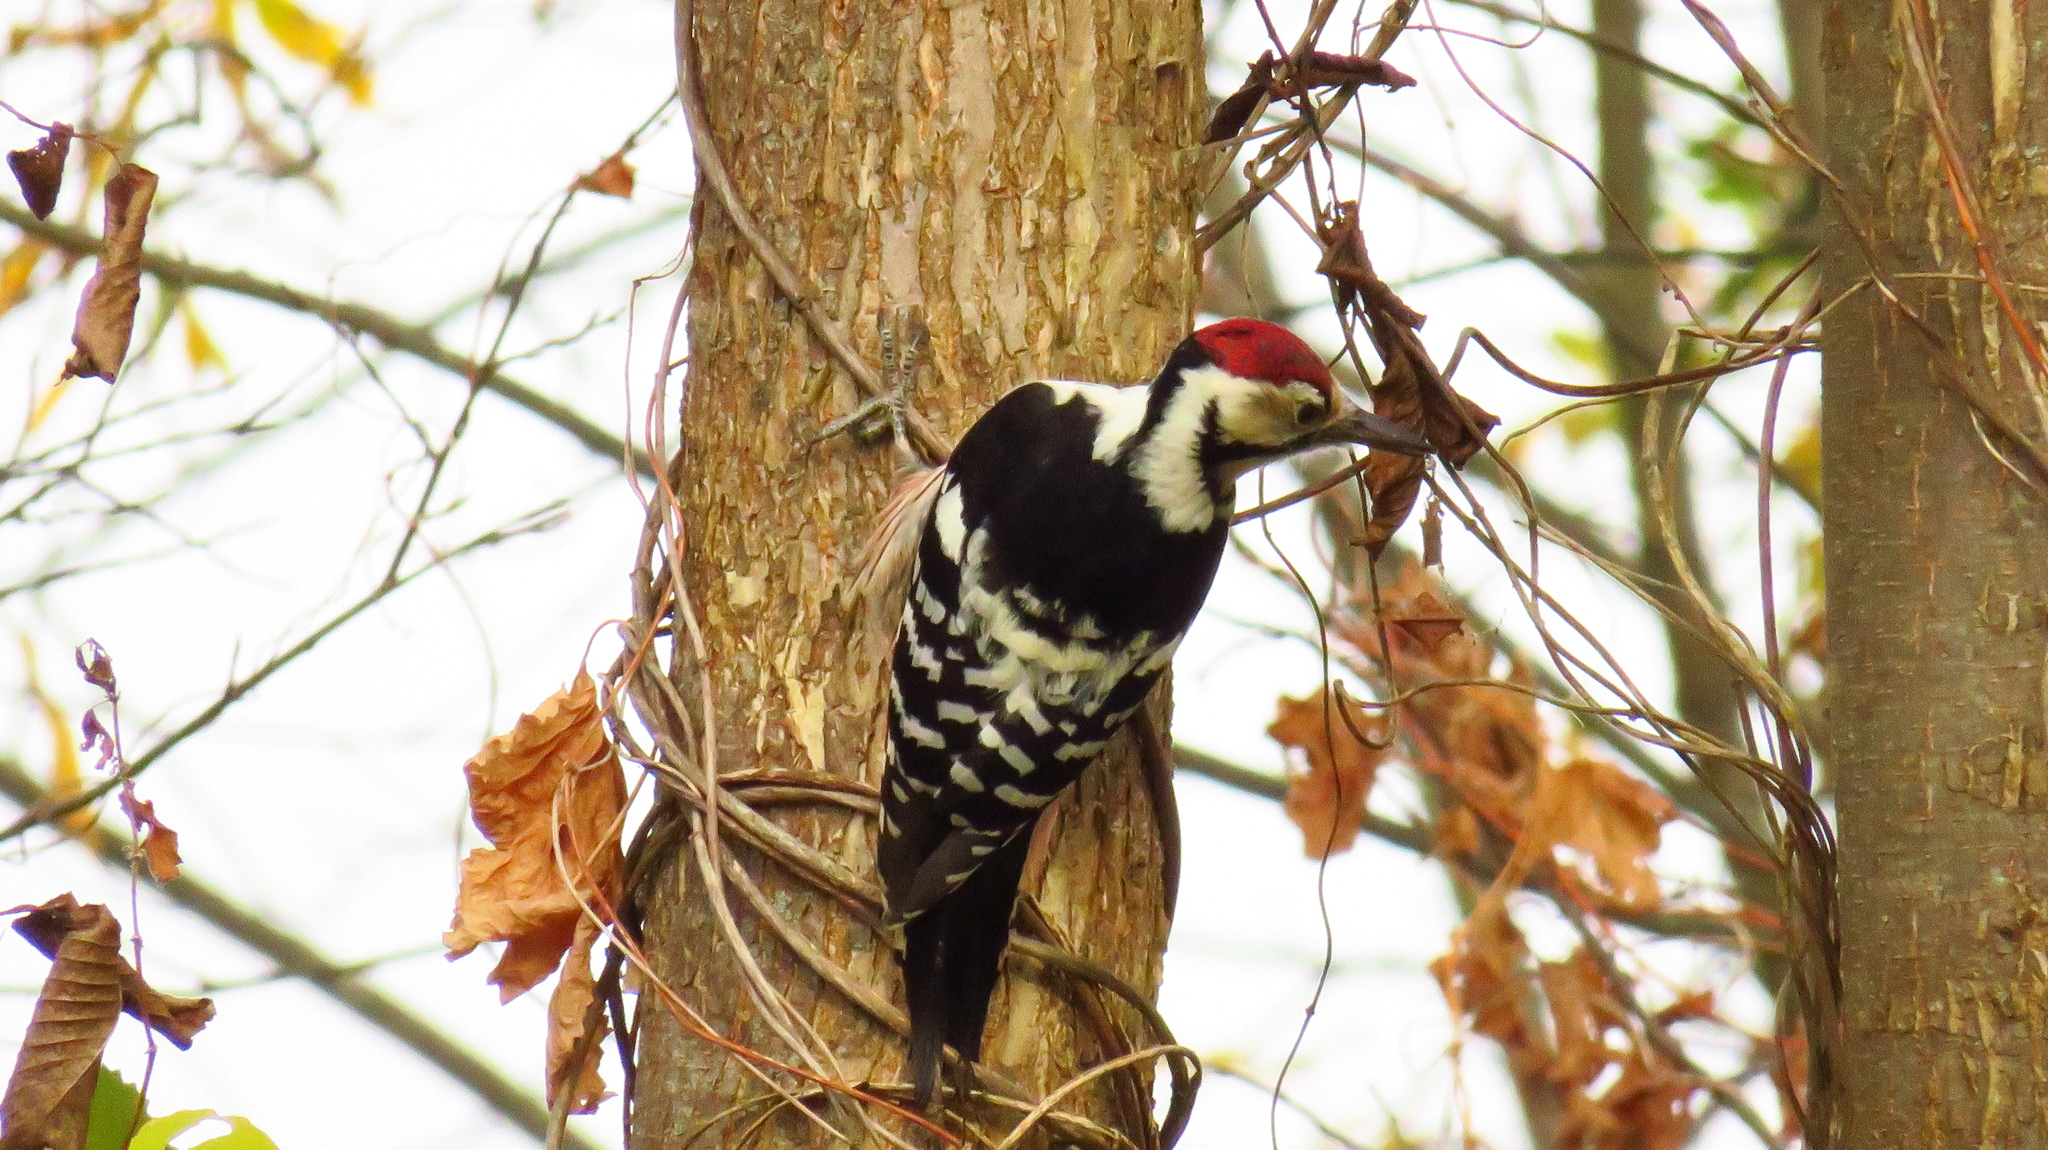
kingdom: Animalia
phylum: Chordata
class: Aves
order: Piciformes
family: Picidae
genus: Dendrocopos
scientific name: Dendrocopos leucotos
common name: White-backed woodpecker
